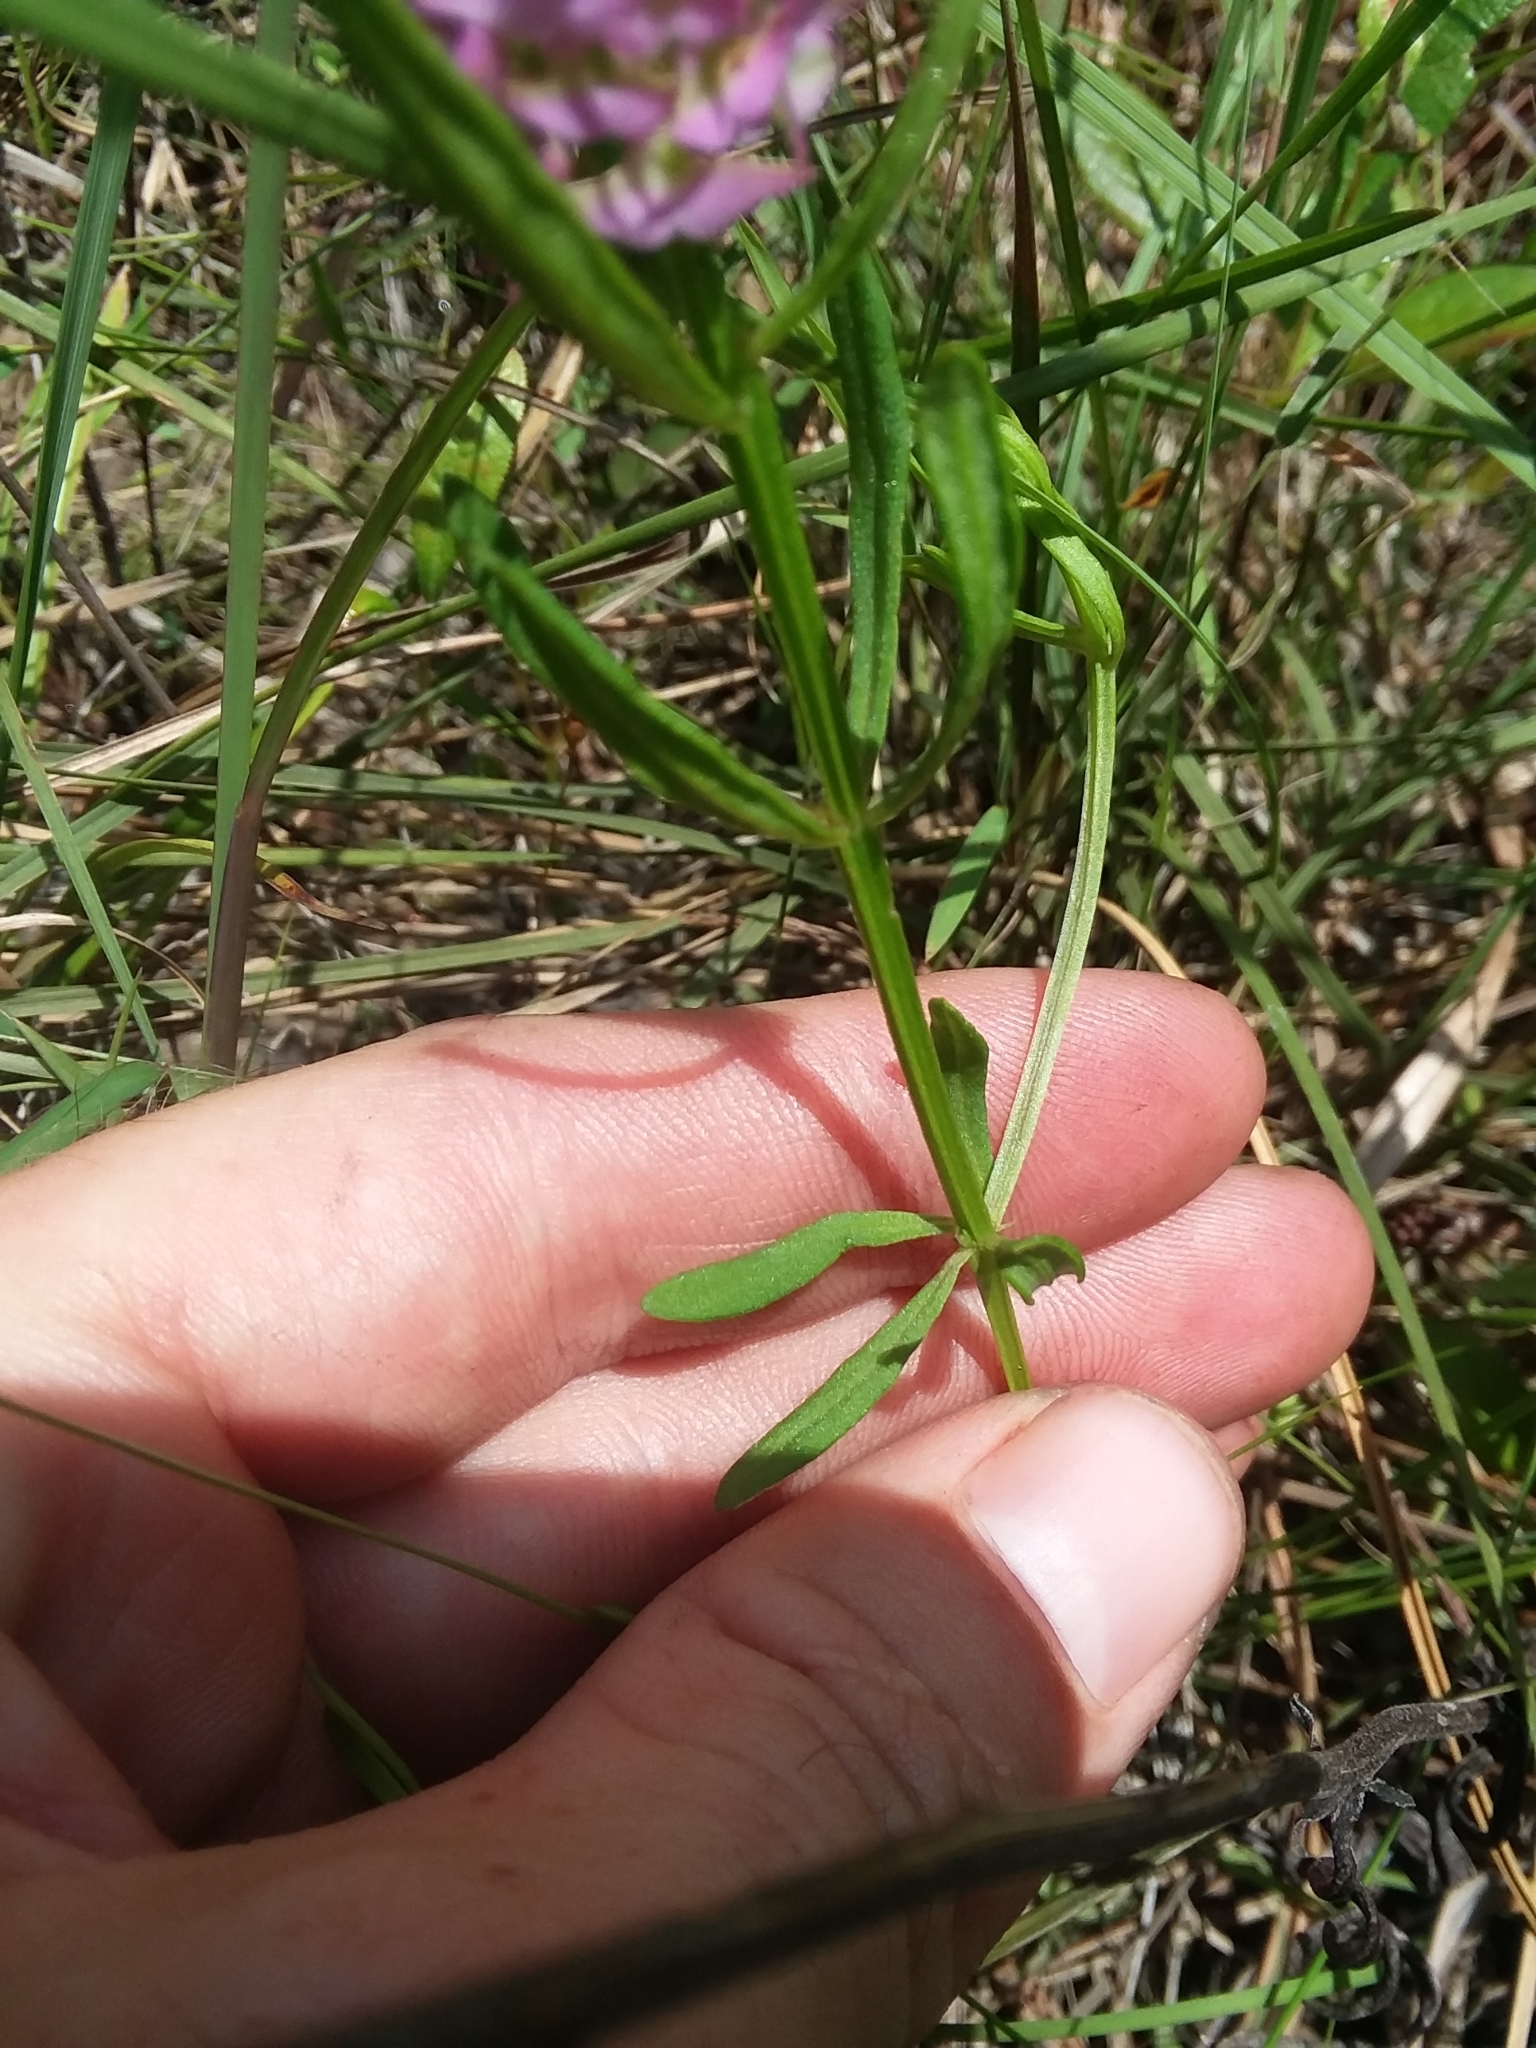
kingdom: Plantae
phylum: Tracheophyta
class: Magnoliopsida
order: Fabales
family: Polygalaceae
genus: Polygala
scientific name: Polygala cruciata
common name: Drumheads
